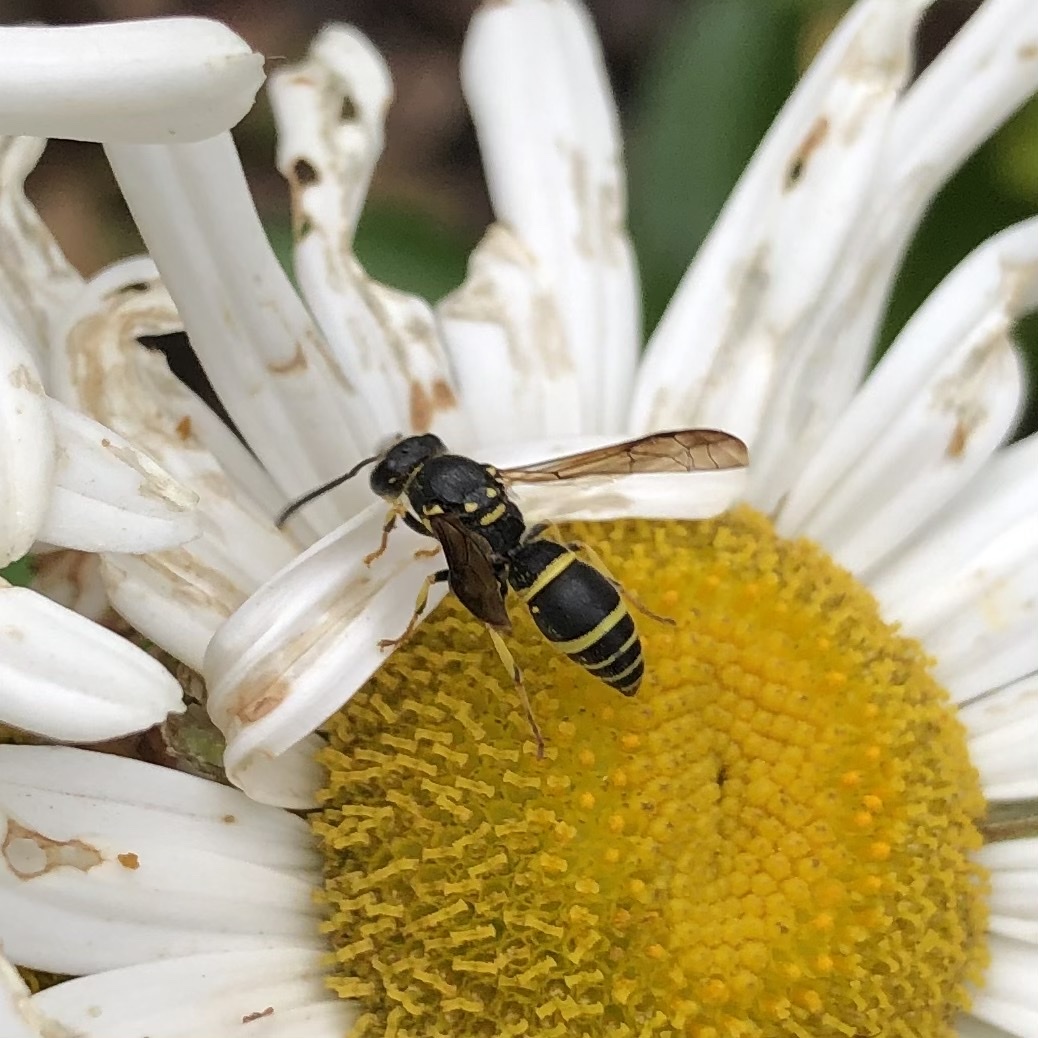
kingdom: Animalia
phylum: Arthropoda
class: Insecta
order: Hymenoptera
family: Vespidae
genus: Ancistrocerus
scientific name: Ancistrocerus adiabatus
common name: Bramble mason wasp
